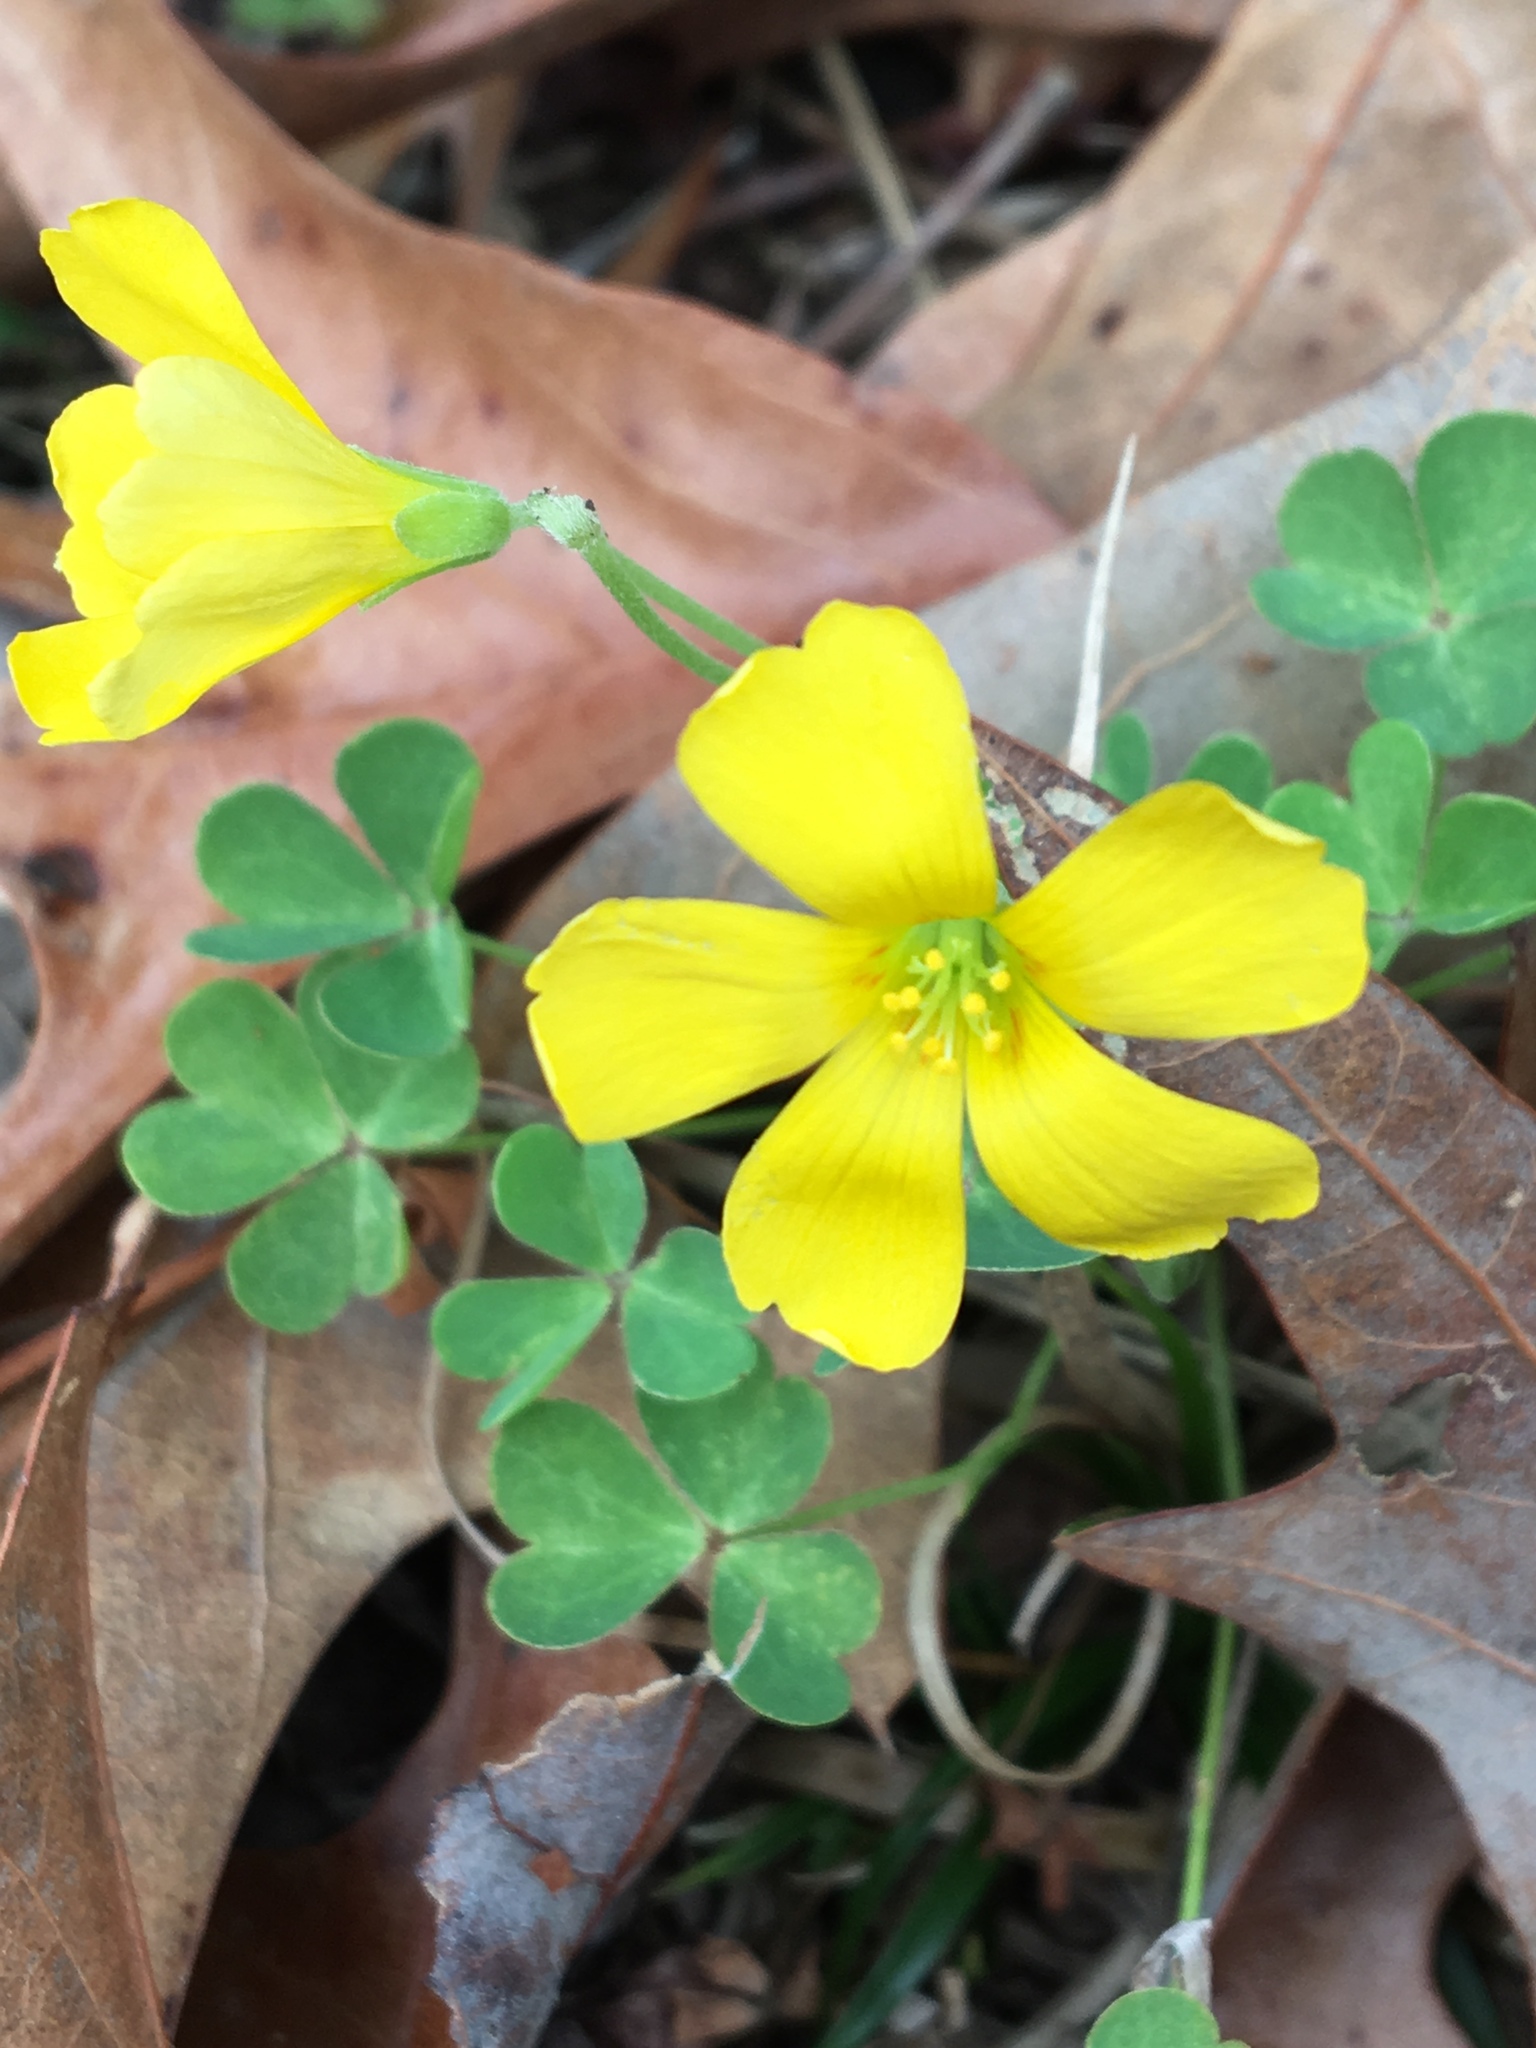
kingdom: Plantae
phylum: Tracheophyta
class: Magnoliopsida
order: Oxalidales
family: Oxalidaceae
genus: Oxalis
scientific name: Oxalis corniculata
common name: Procumbent yellow-sorrel
